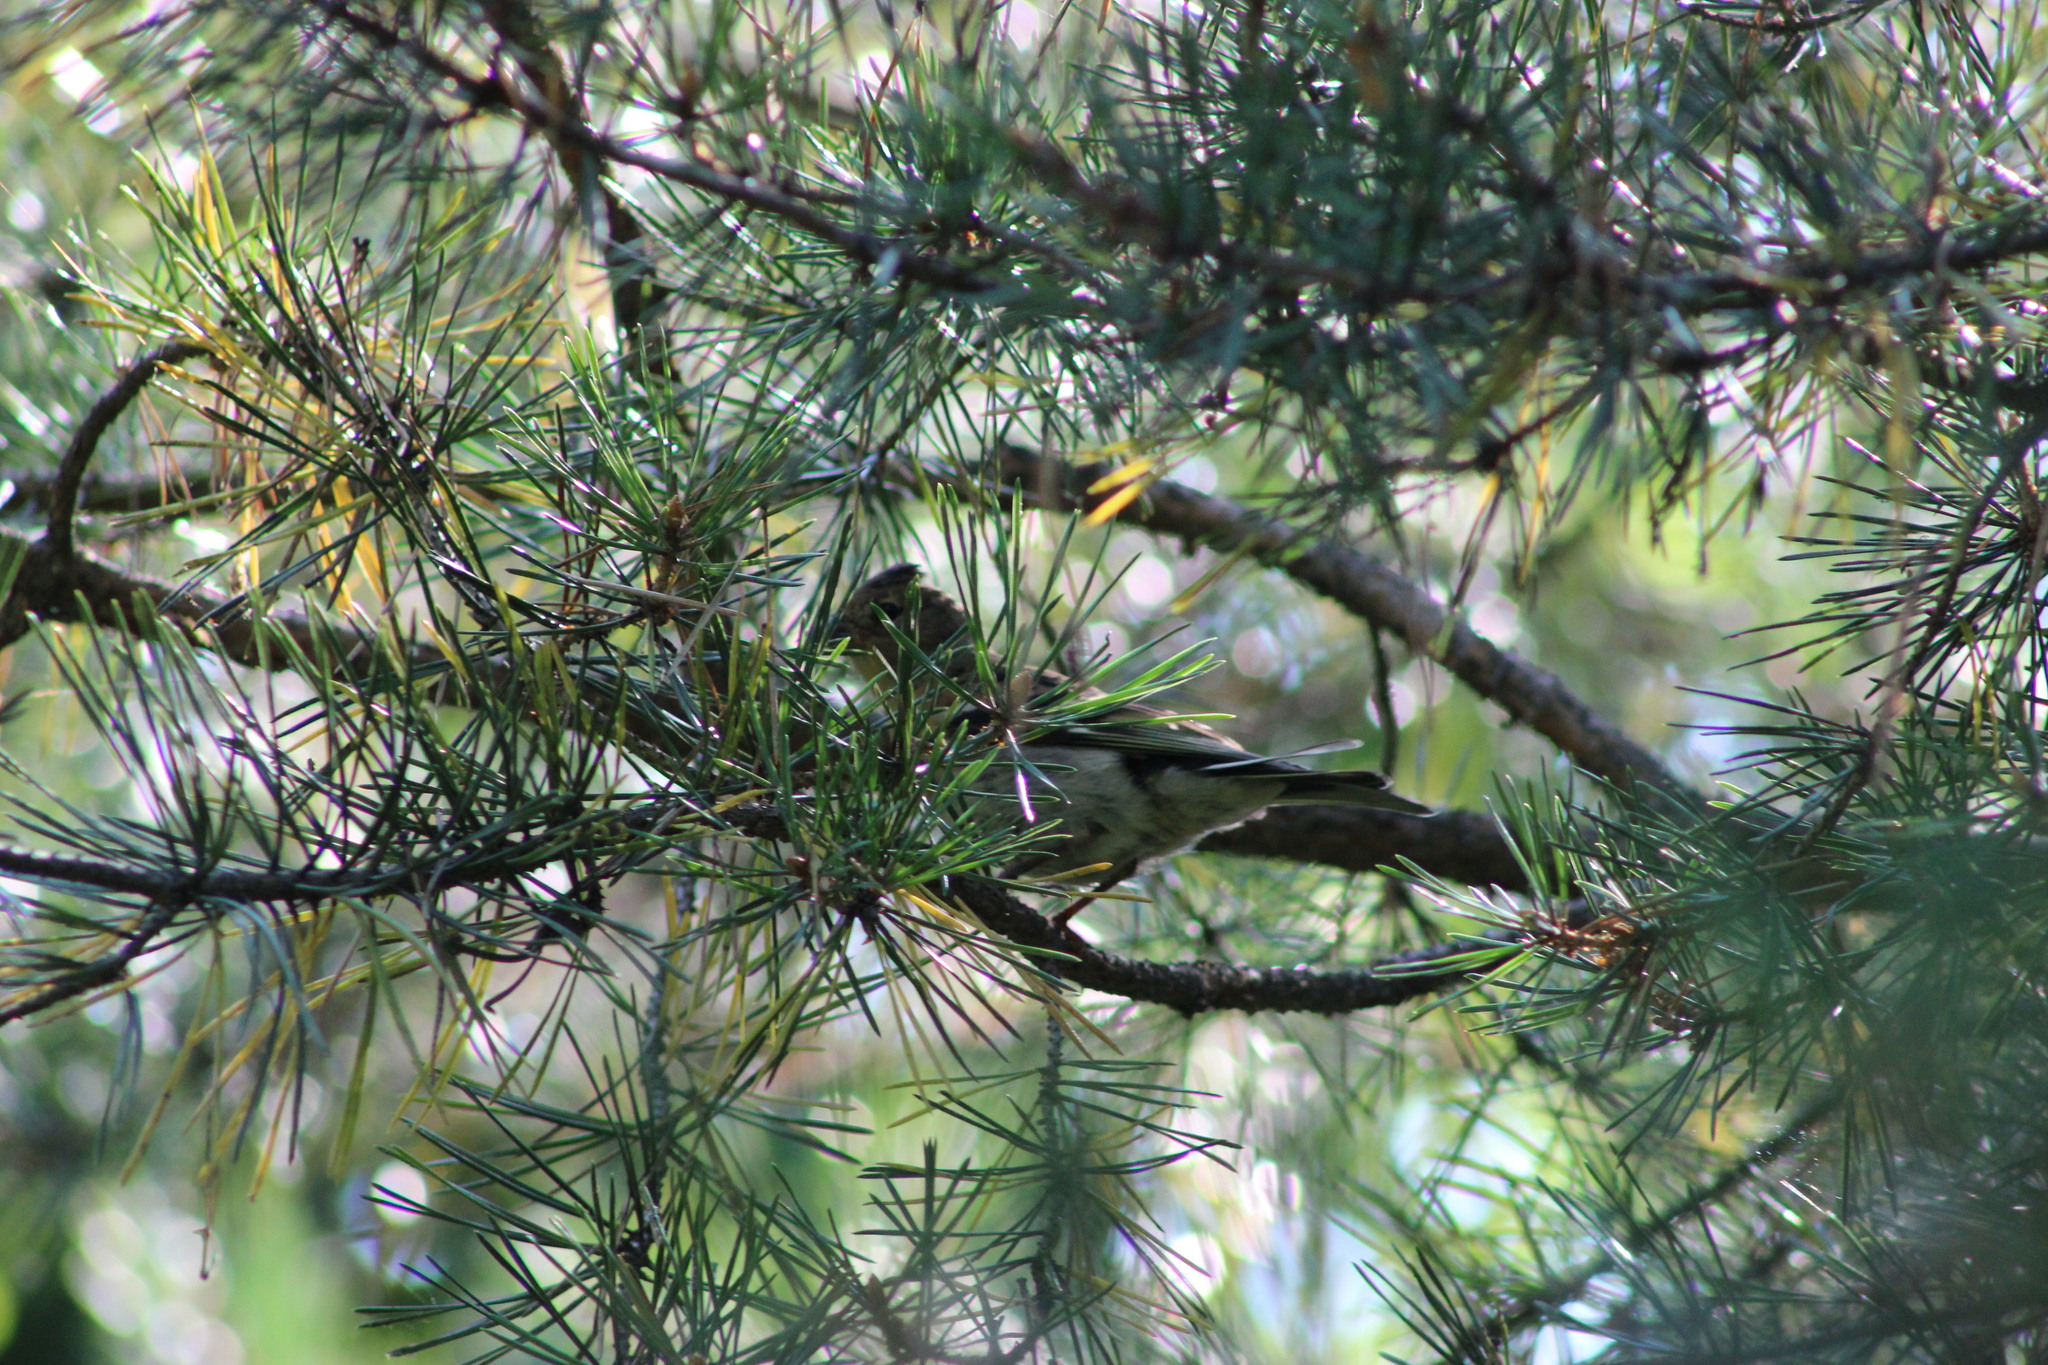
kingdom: Animalia
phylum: Chordata
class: Aves
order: Passeriformes
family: Fringillidae
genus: Fringilla
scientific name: Fringilla montifringilla
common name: Brambling
